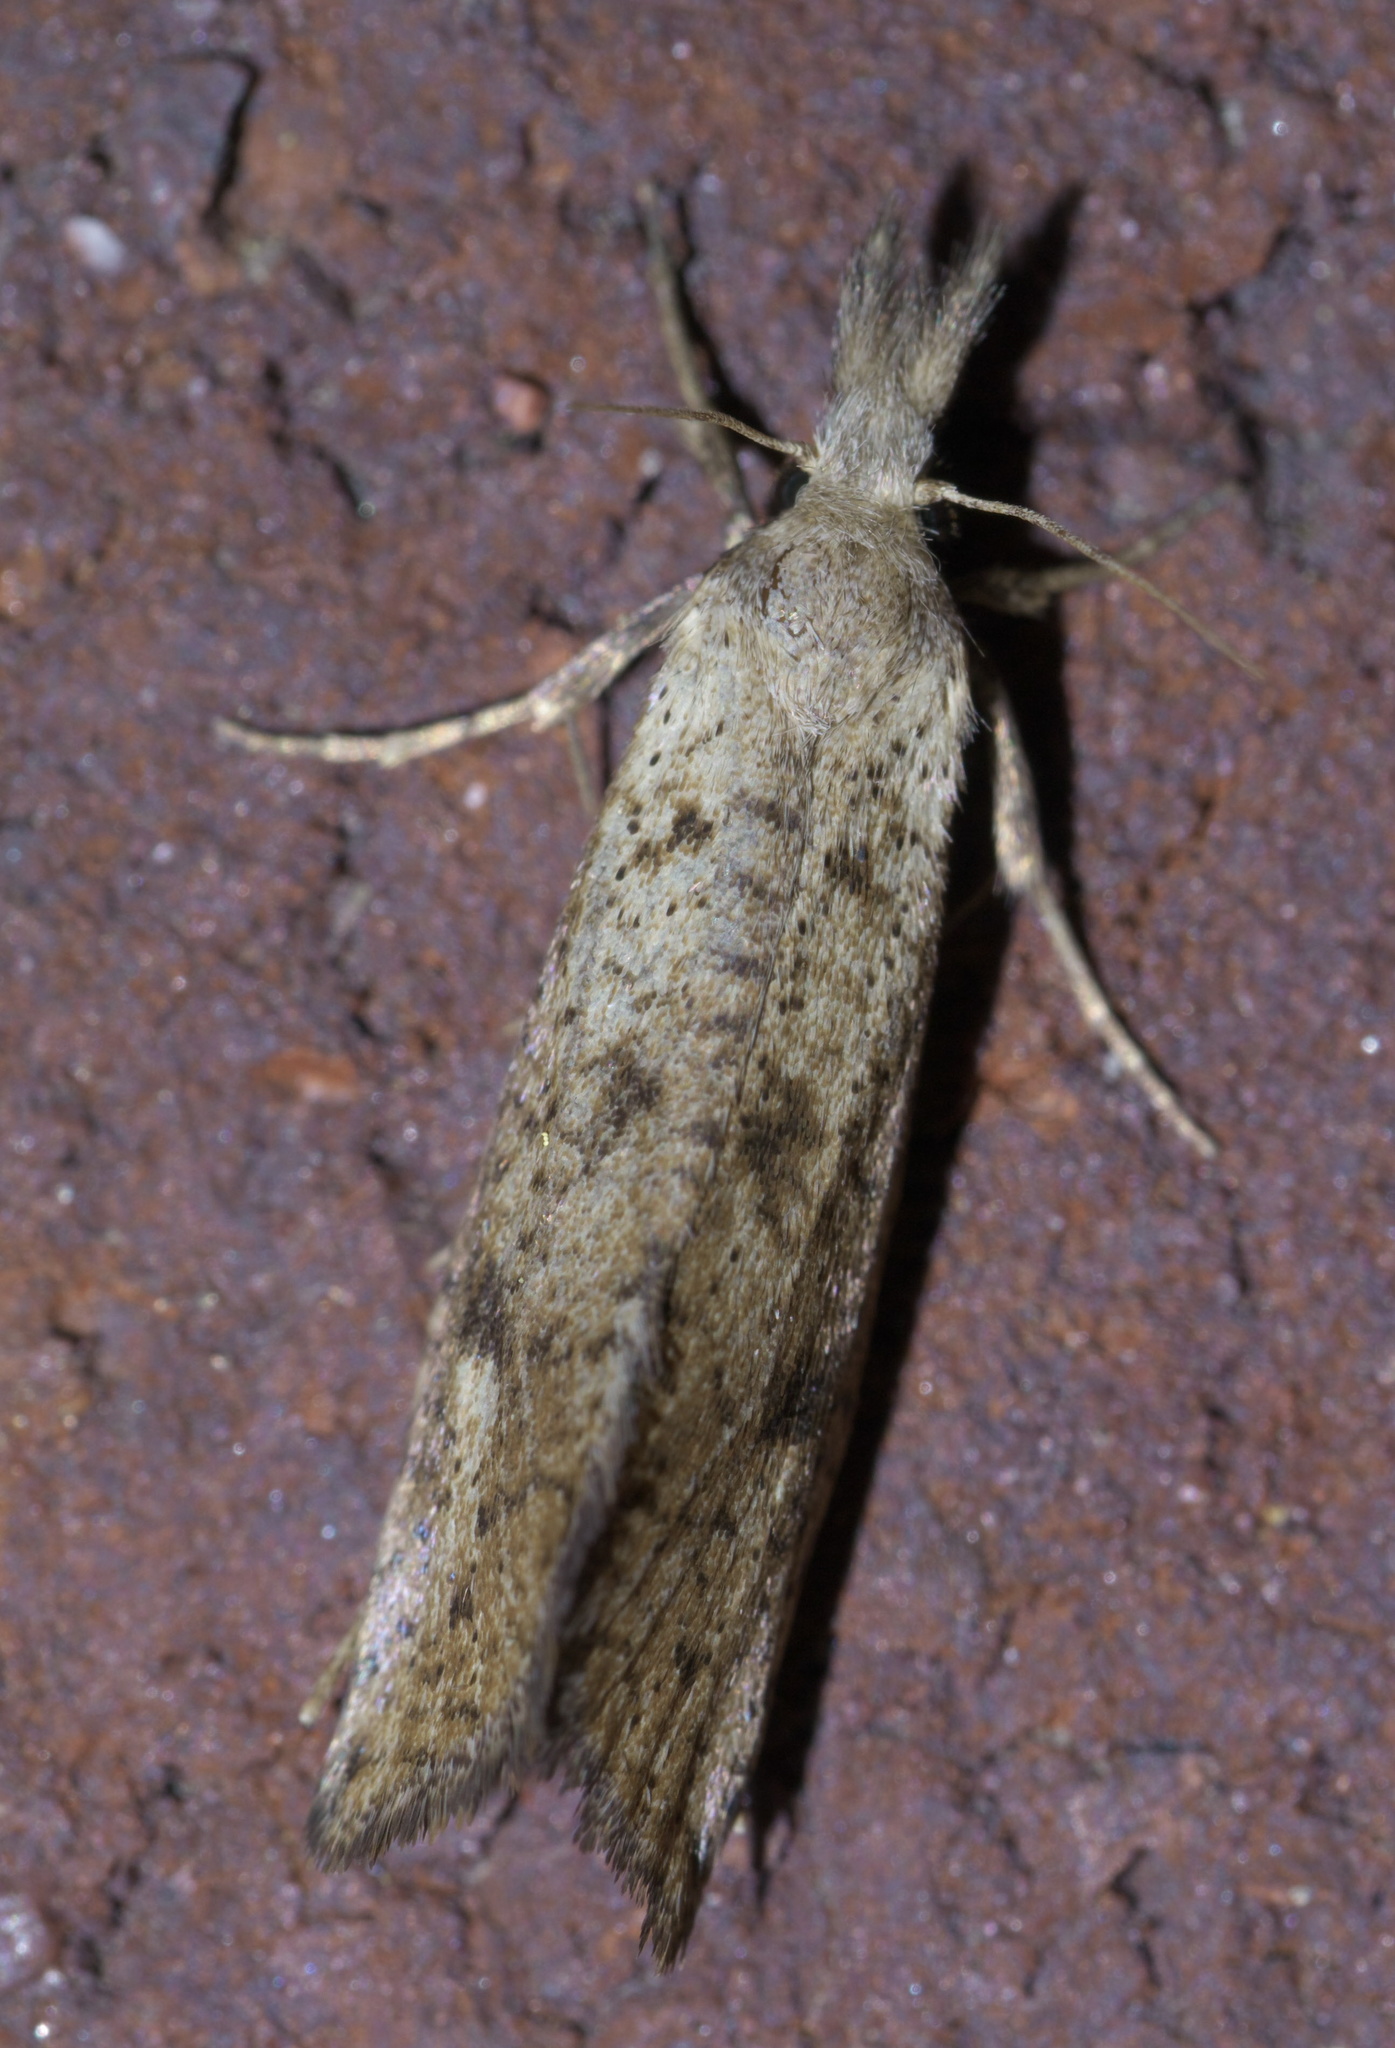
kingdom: Animalia
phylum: Arthropoda
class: Insecta
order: Lepidoptera
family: Tineidae
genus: Acrolophus
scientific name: Acrolophus mortipennella
